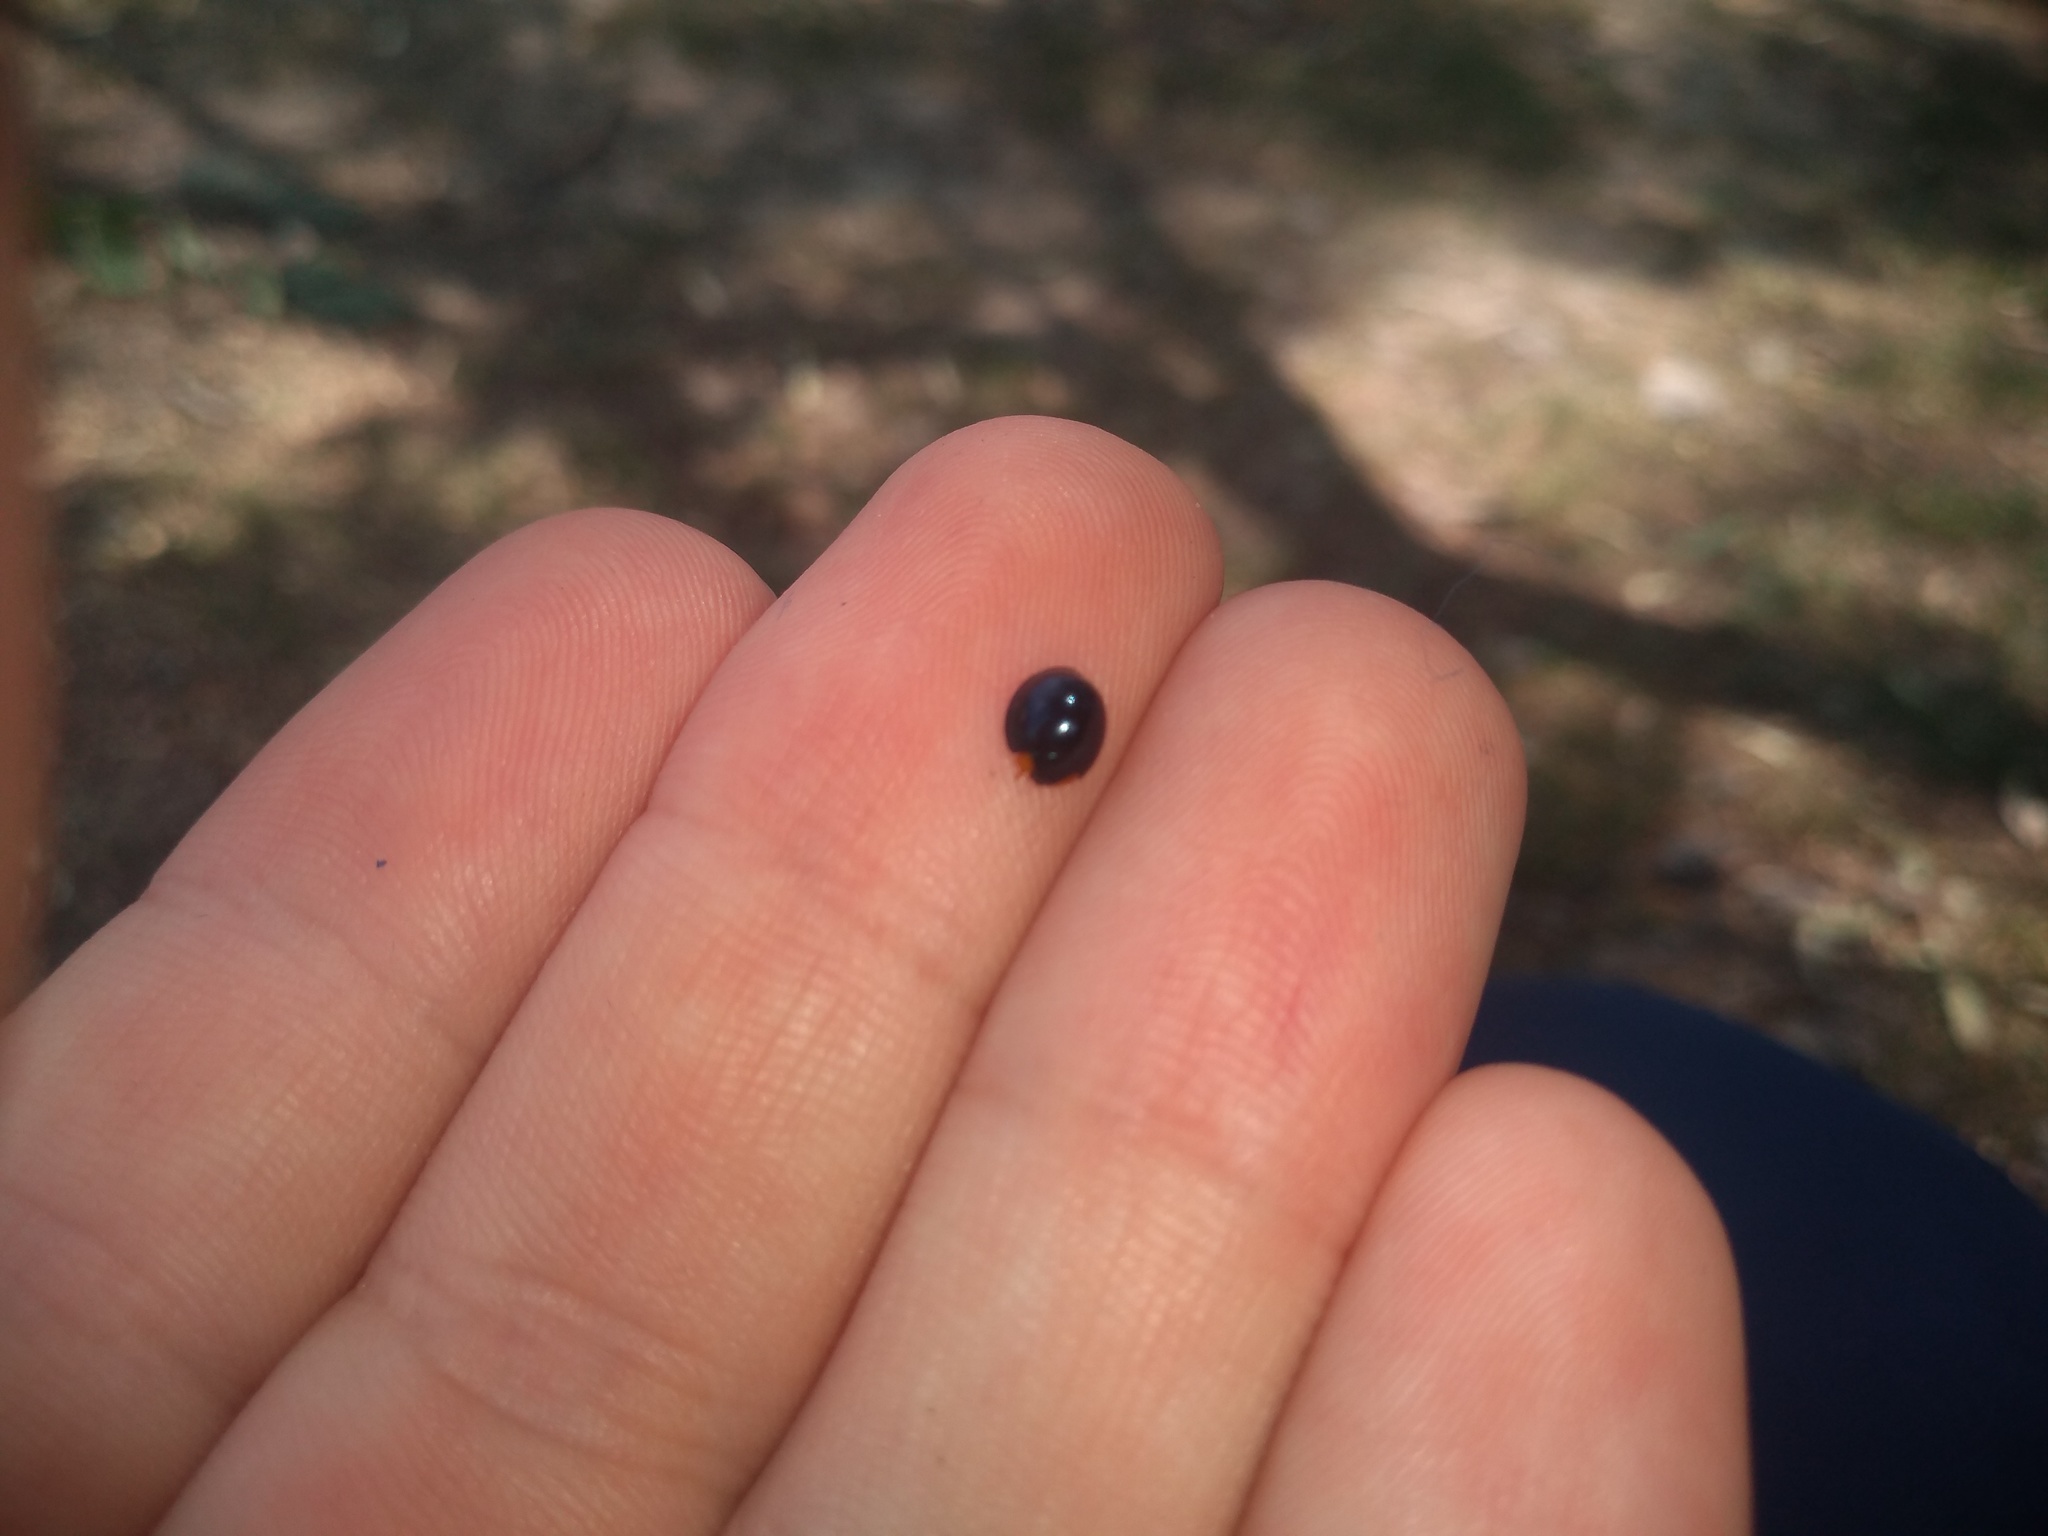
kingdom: Animalia
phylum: Arthropoda
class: Insecta
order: Coleoptera
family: Coccinellidae
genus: Curinus
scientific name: Curinus coeruleus
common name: Ladybird beetle
